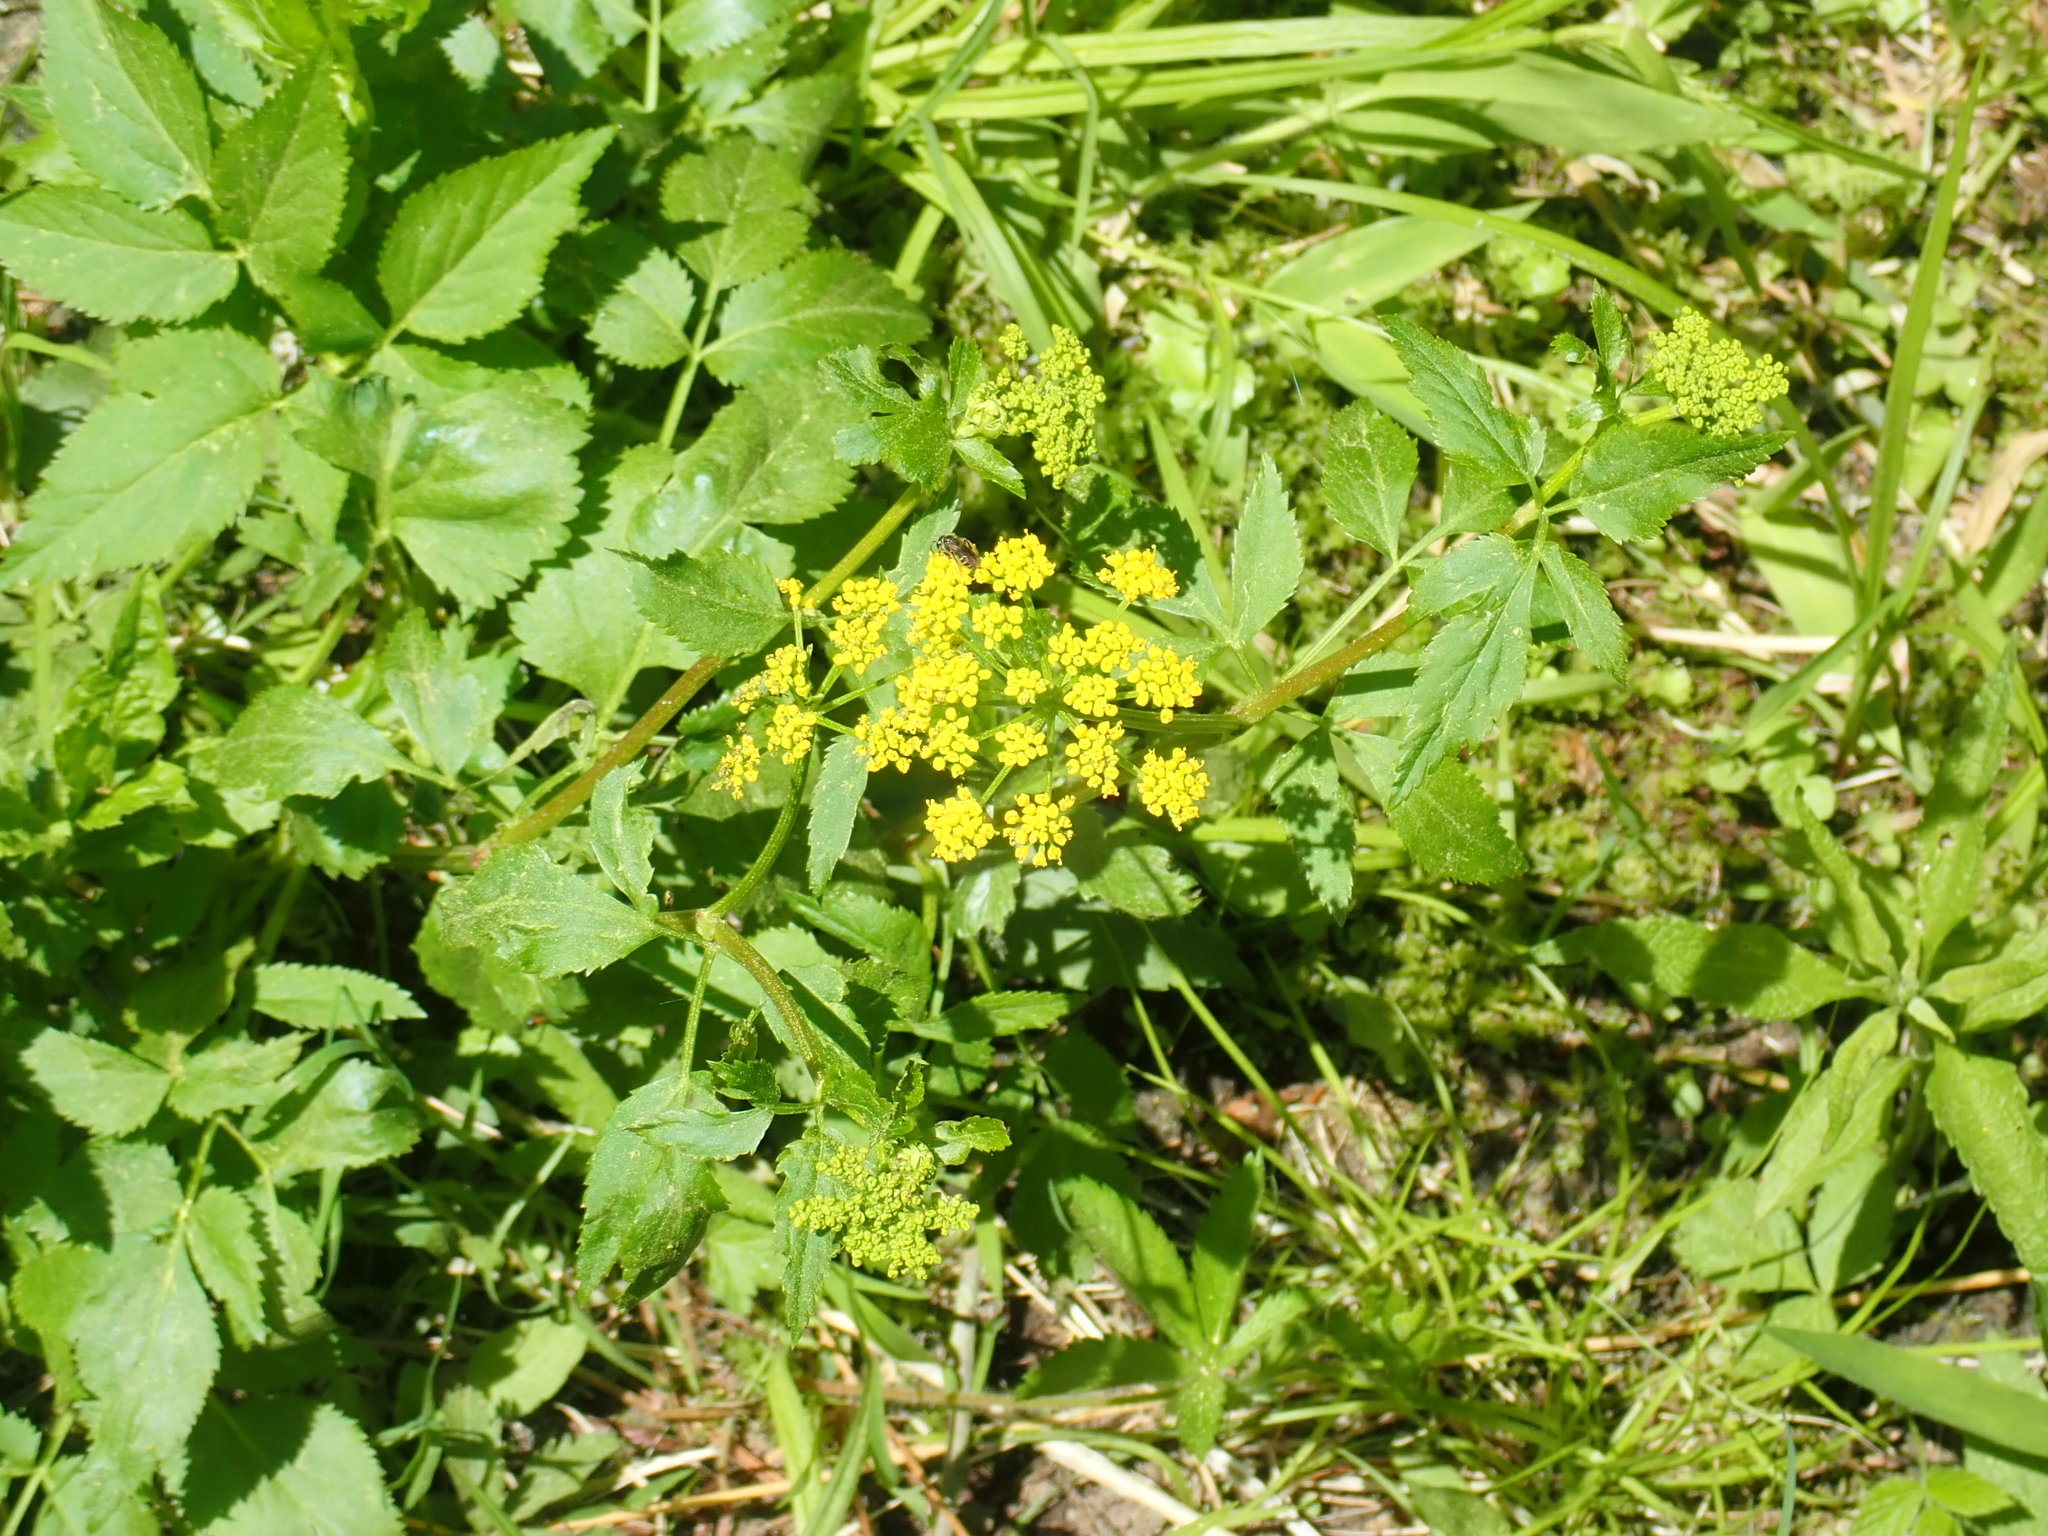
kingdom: Plantae
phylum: Tracheophyta
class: Magnoliopsida
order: Apiales
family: Apiaceae
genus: Zizia
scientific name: Zizia aurea
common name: Golden alexanders
